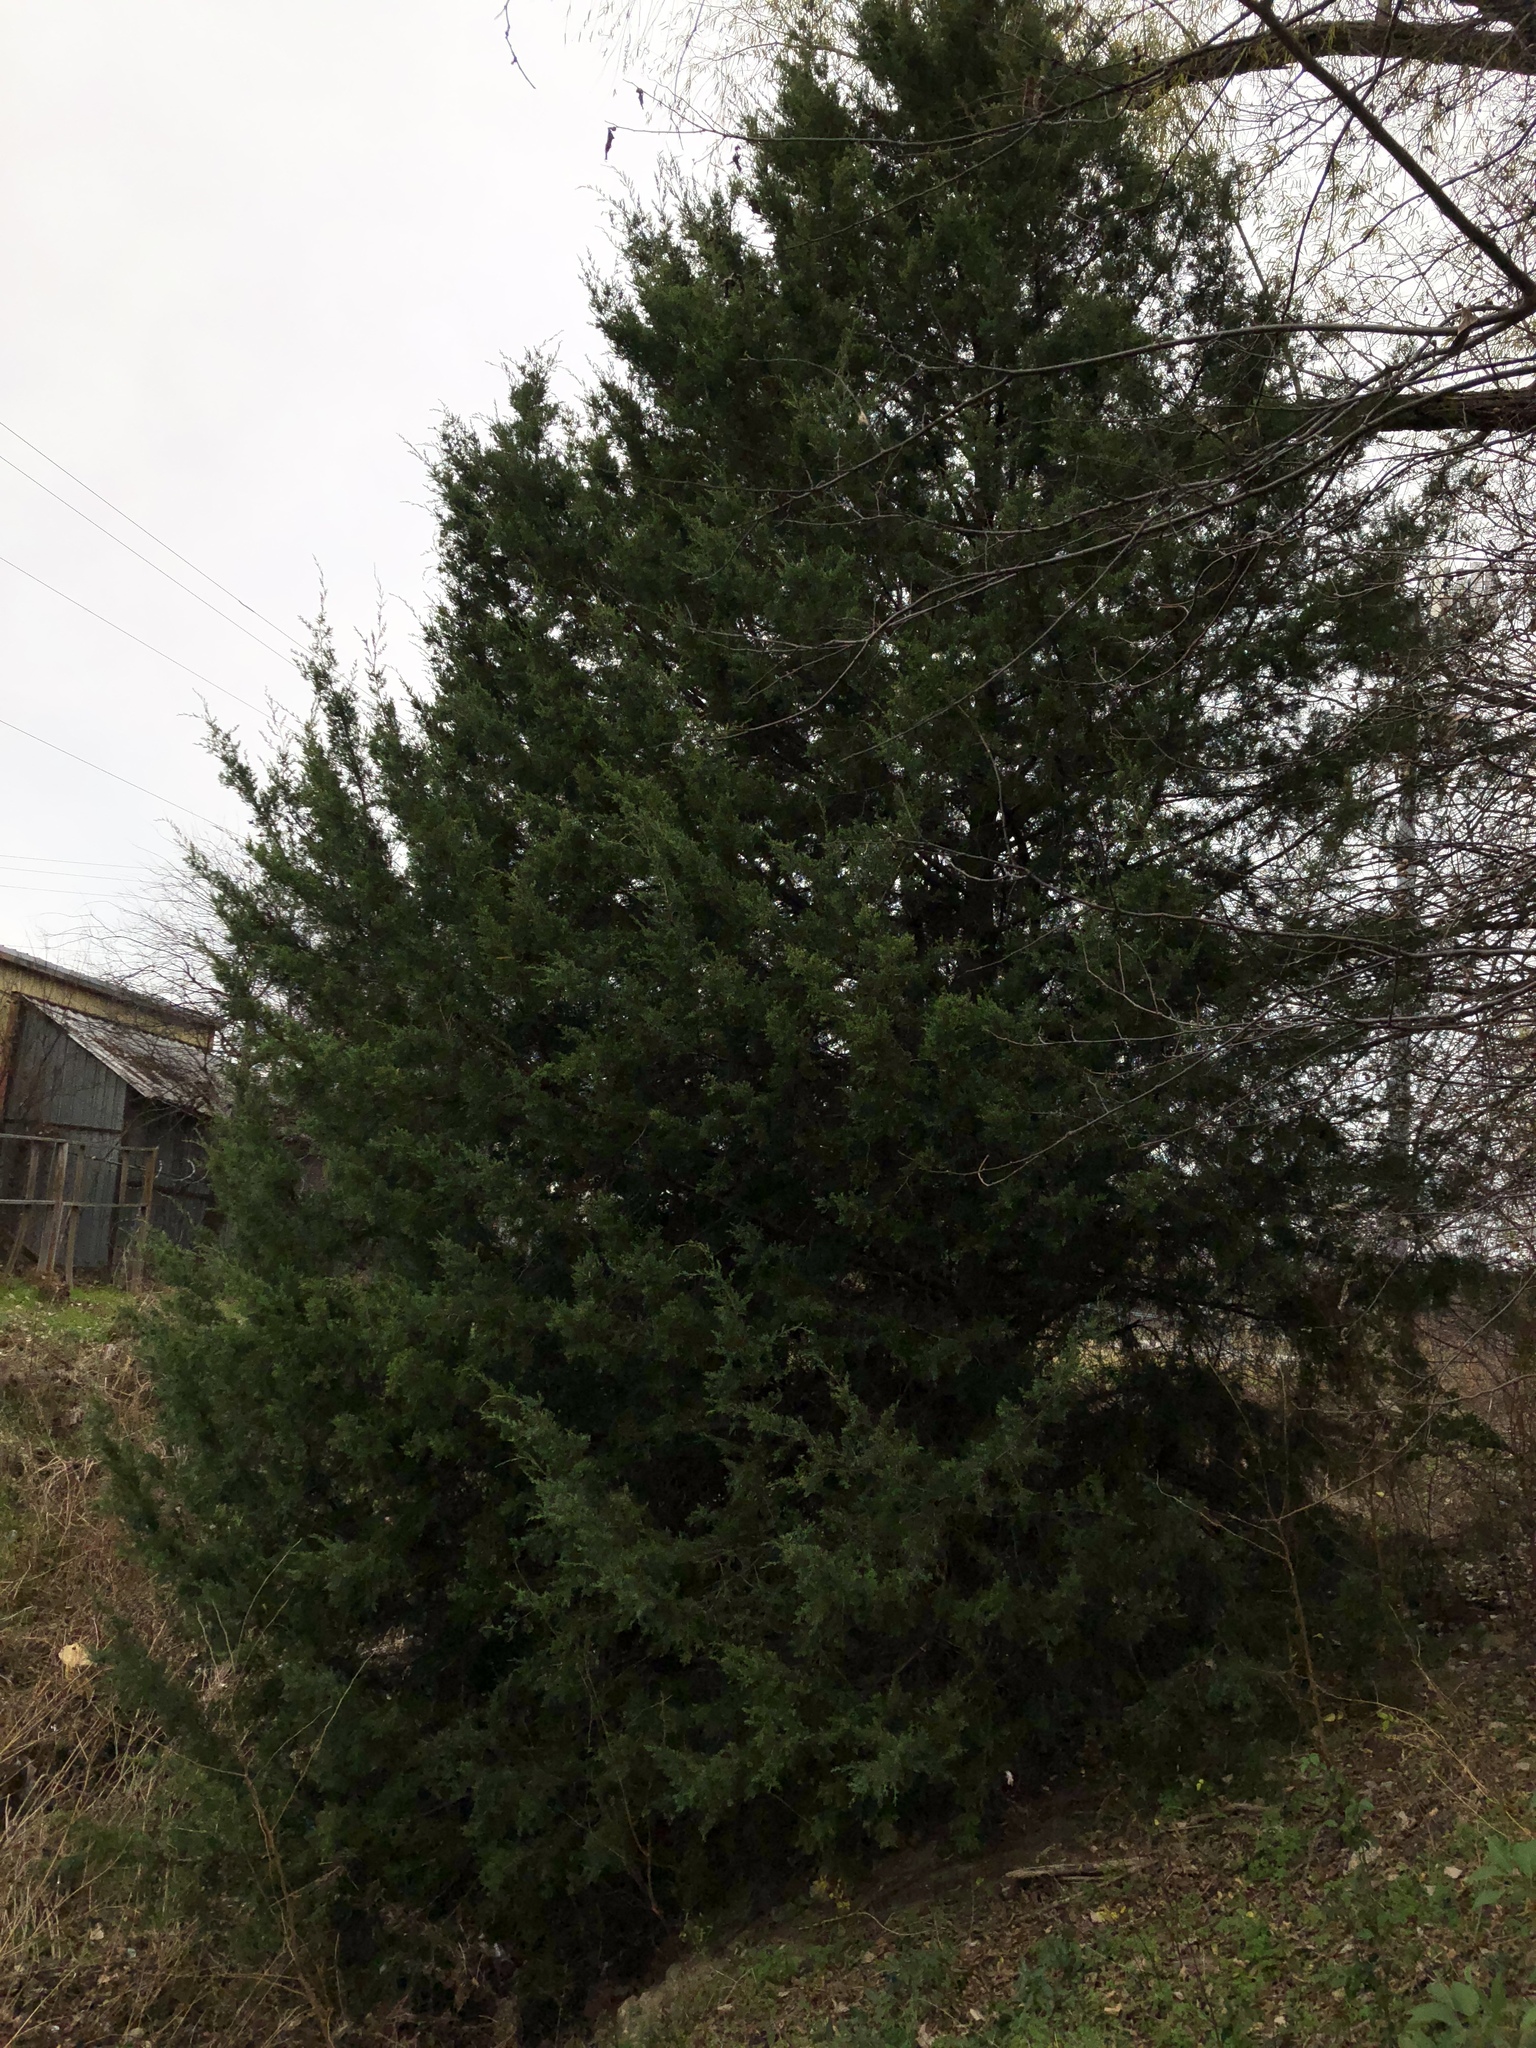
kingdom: Plantae
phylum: Tracheophyta
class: Pinopsida
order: Pinales
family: Cupressaceae
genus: Juniperus
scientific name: Juniperus virginiana
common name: Red juniper
